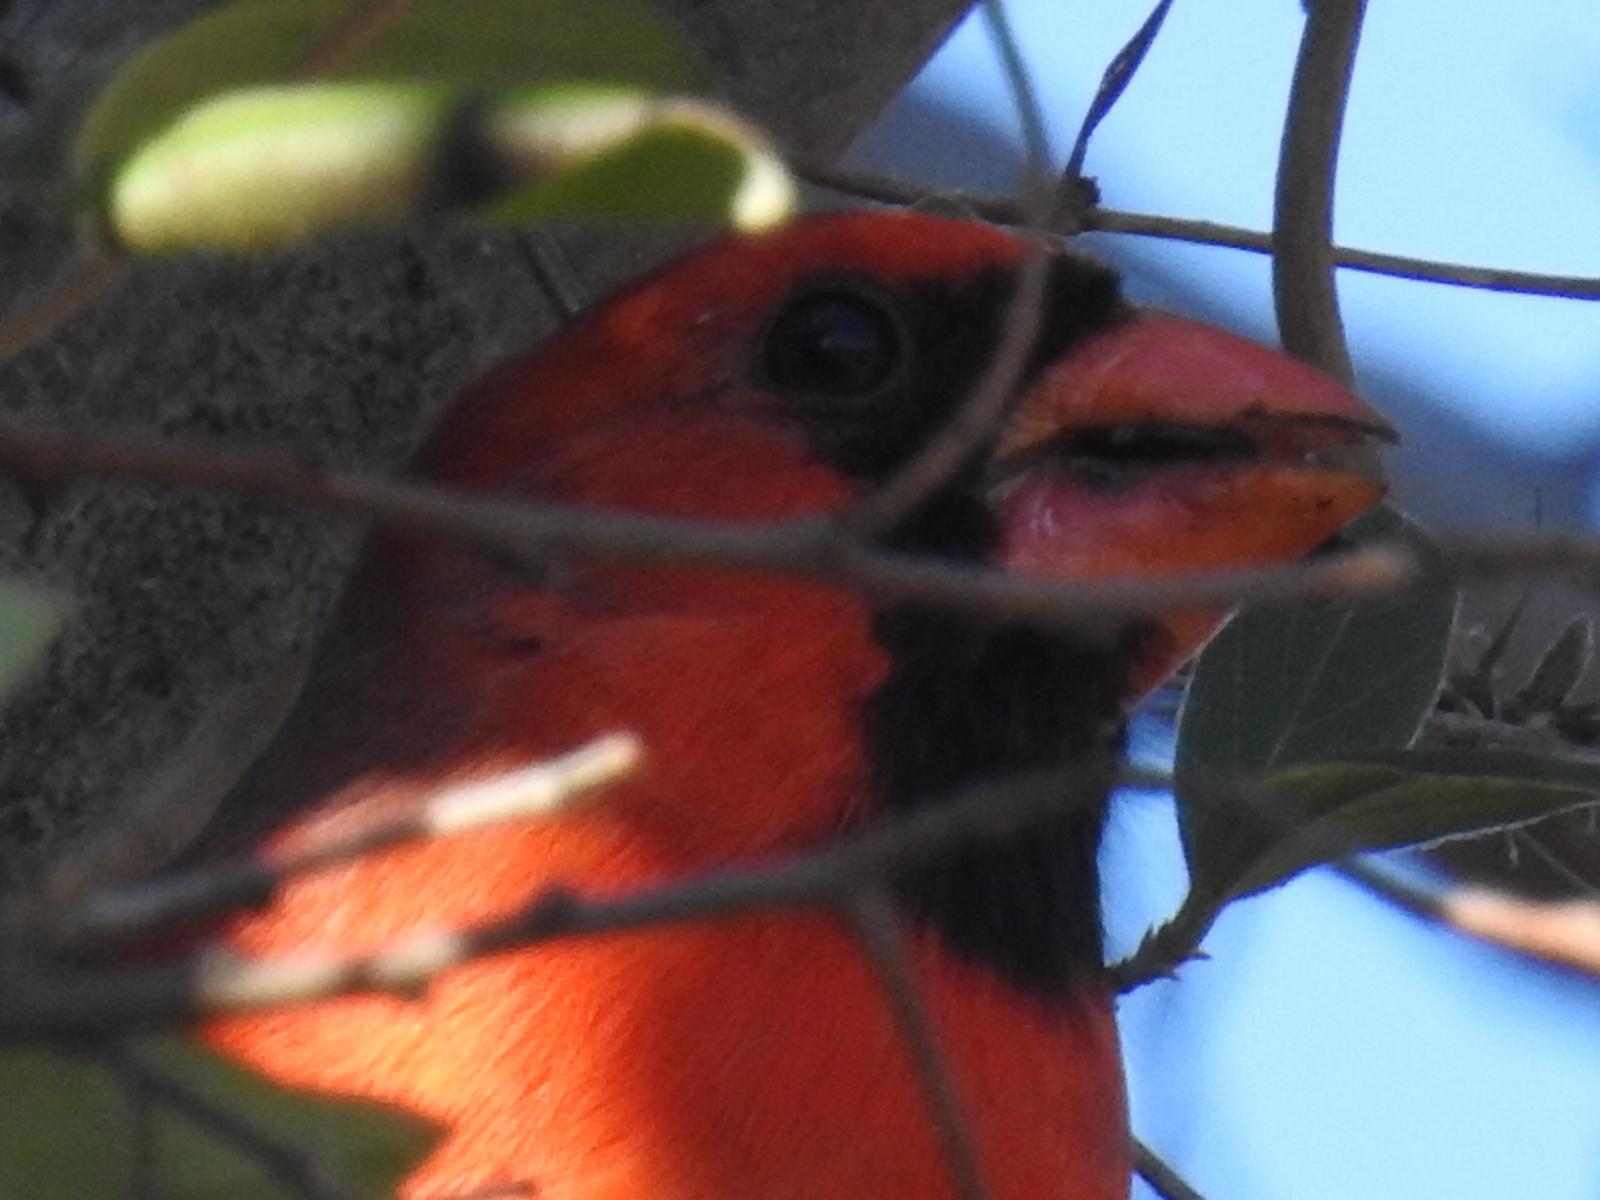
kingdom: Animalia
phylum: Chordata
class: Aves
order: Passeriformes
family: Cardinalidae
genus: Cardinalis
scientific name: Cardinalis cardinalis
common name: Northern cardinal
